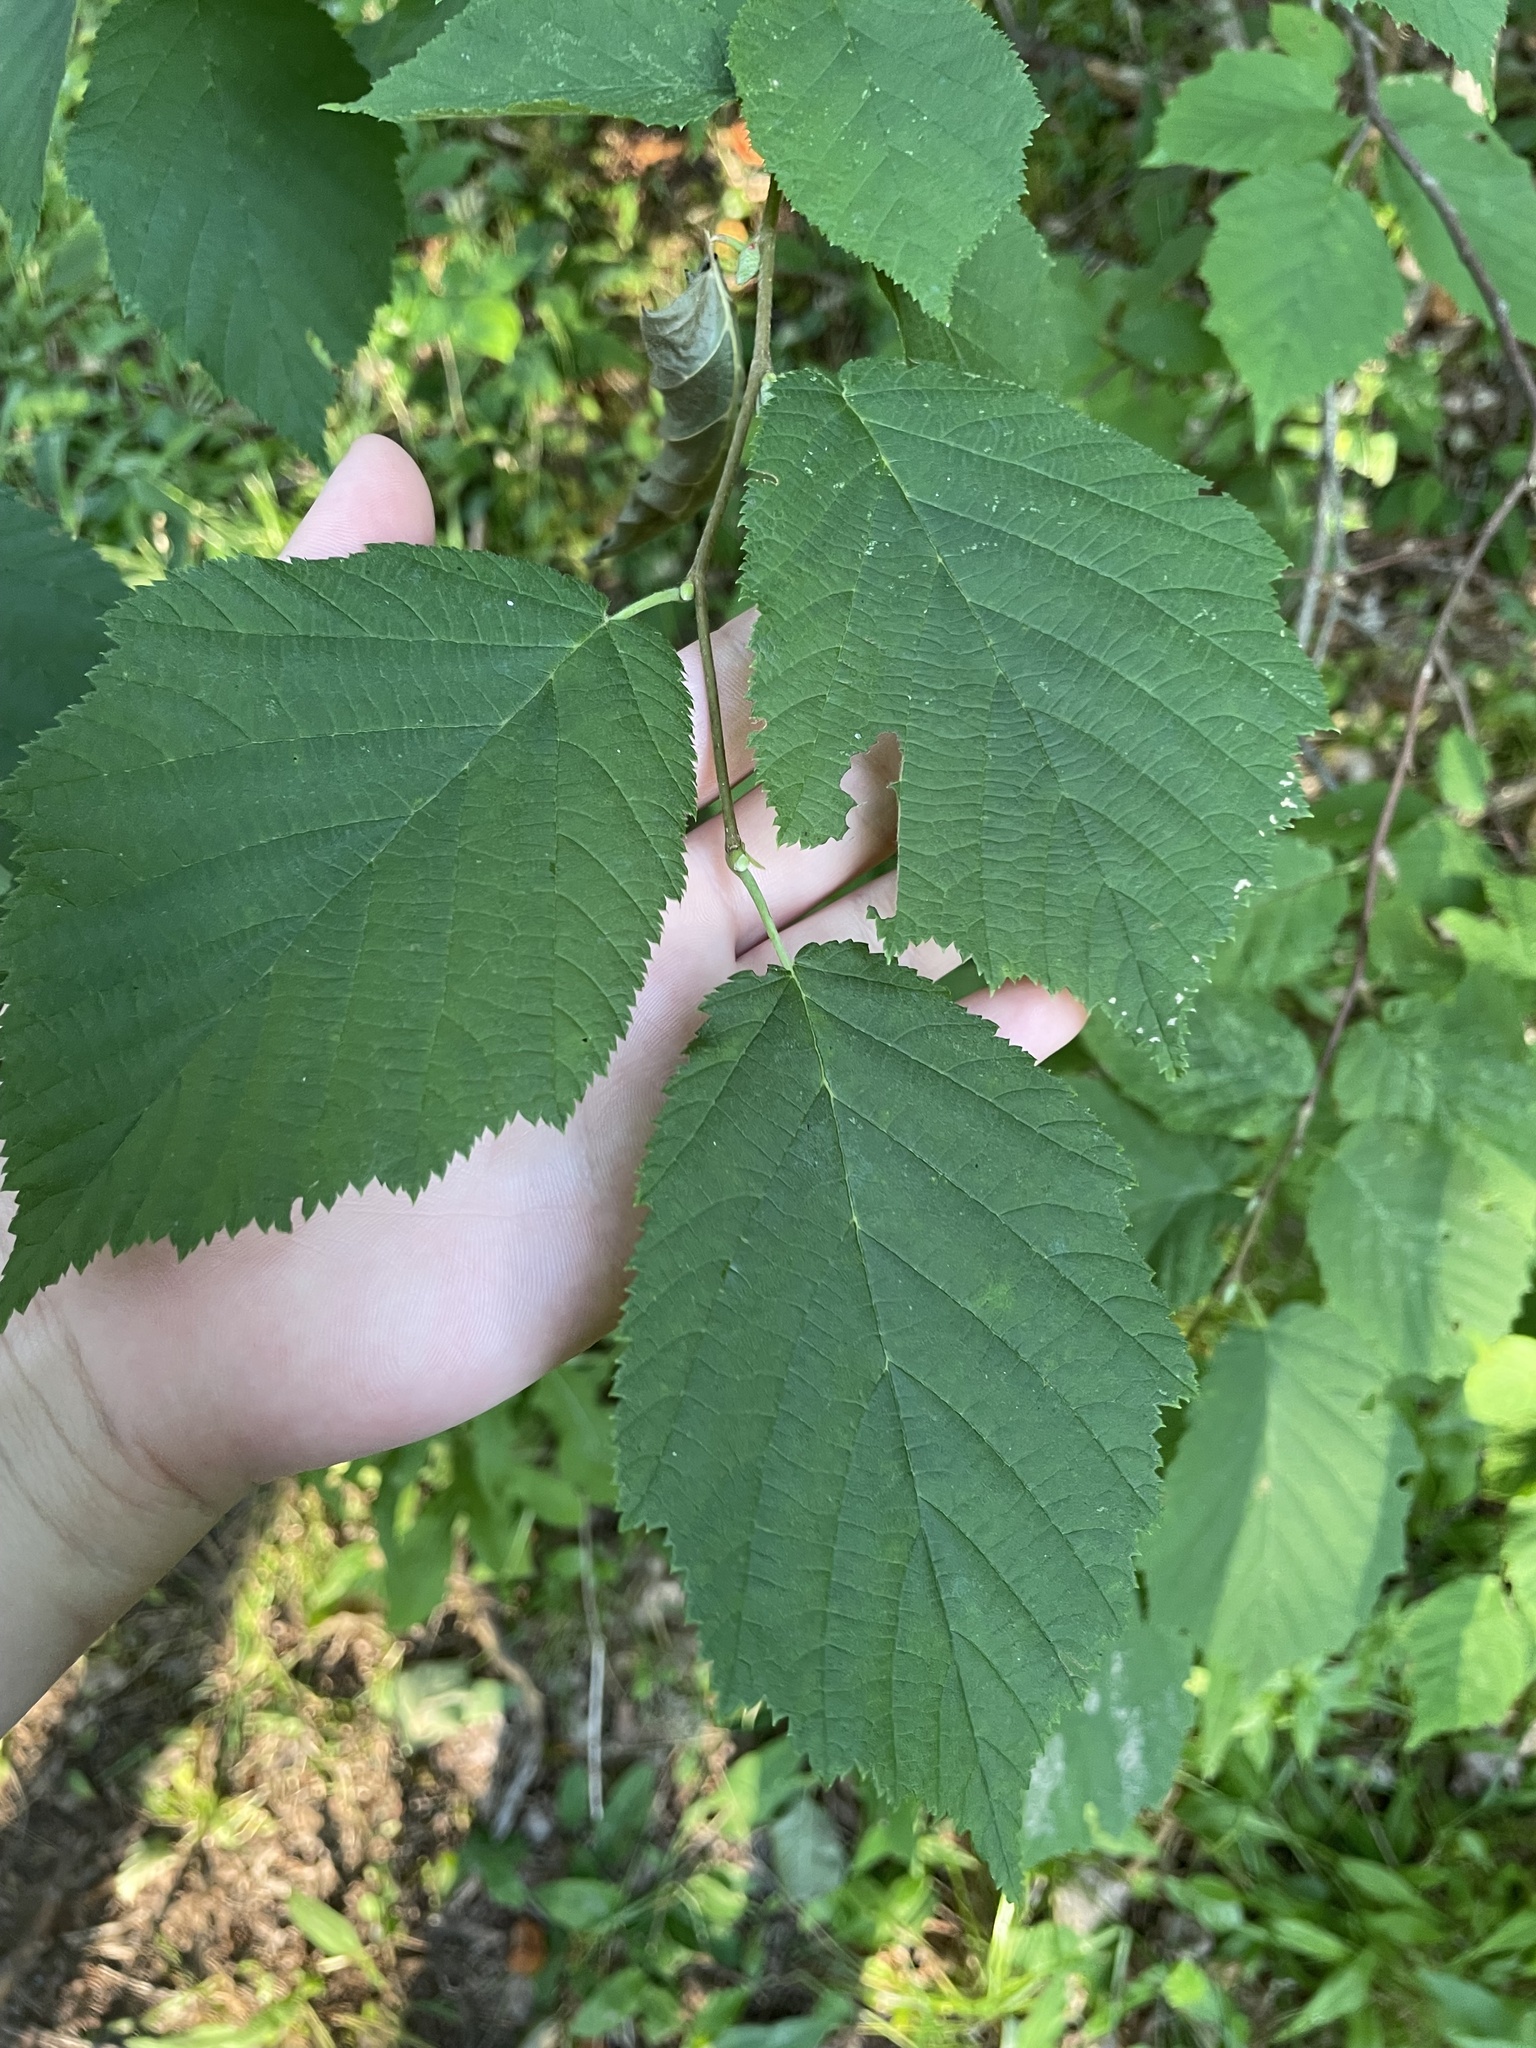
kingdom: Plantae
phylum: Tracheophyta
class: Magnoliopsida
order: Fagales
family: Betulaceae
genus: Corylus
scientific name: Corylus cornuta
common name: Beaked hazel
